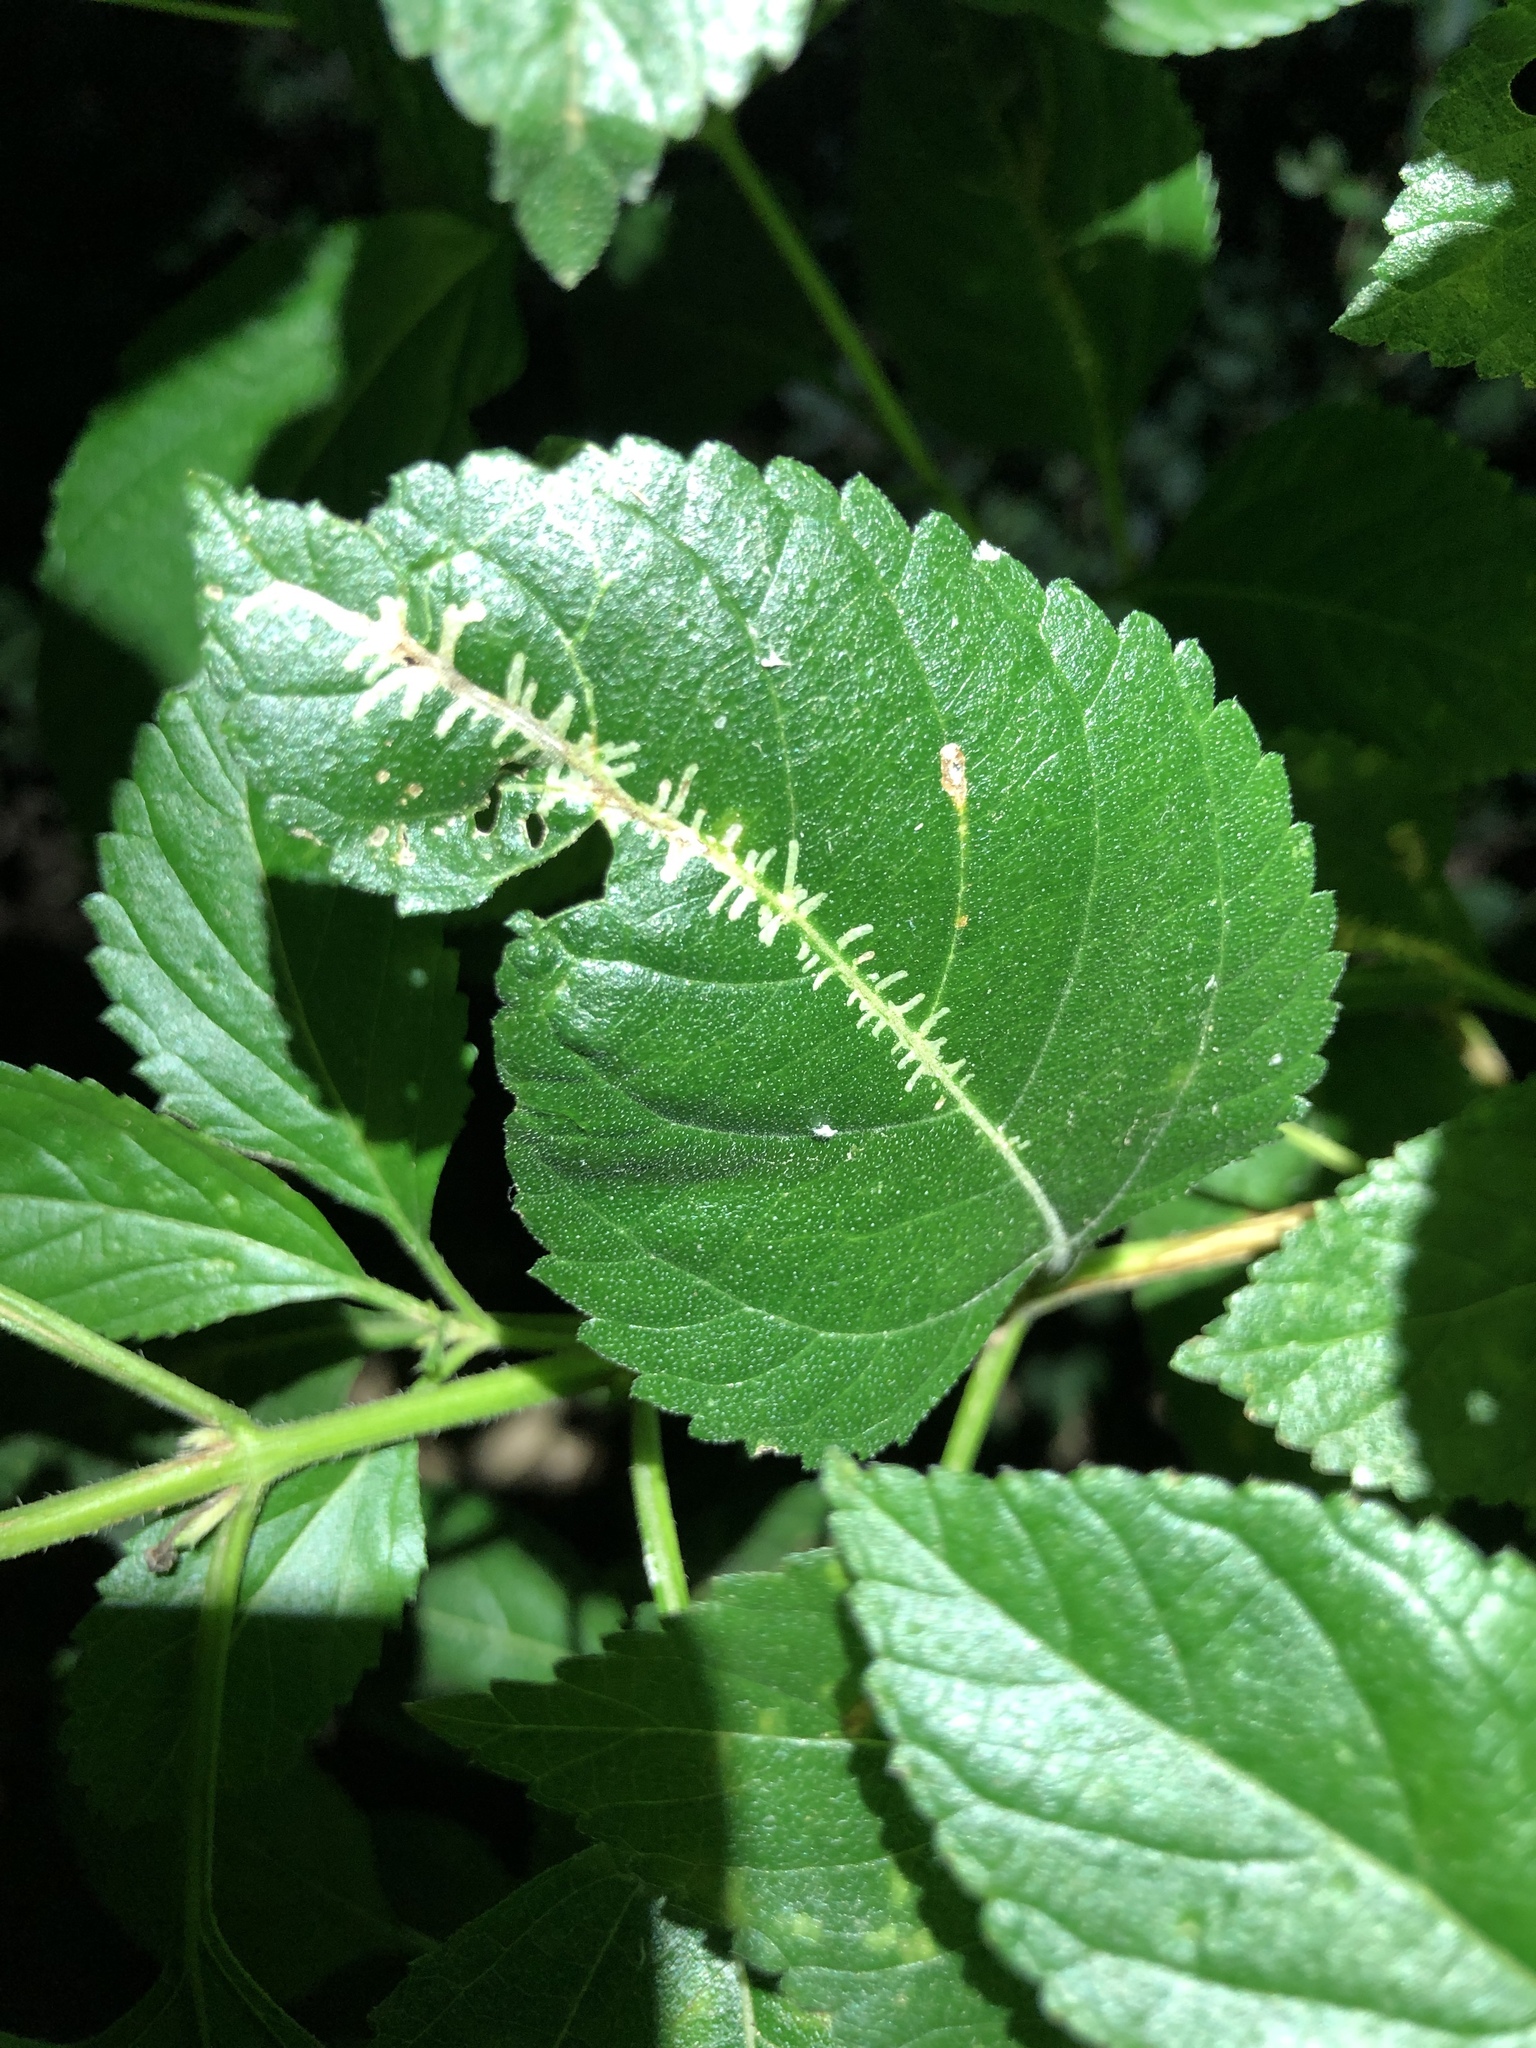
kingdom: Animalia
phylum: Arthropoda
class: Insecta
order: Diptera
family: Agromyzidae
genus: Ophiomyia
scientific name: Ophiomyia camarae
